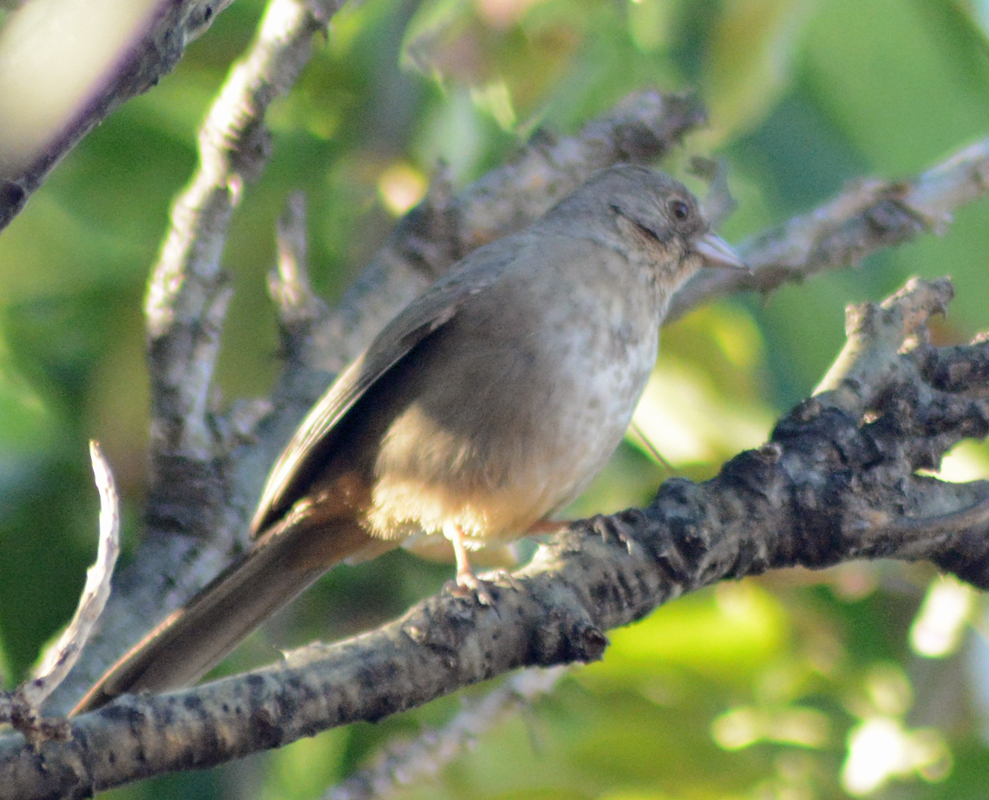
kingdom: Animalia
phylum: Chordata
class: Aves
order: Passeriformes
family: Passerellidae
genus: Melozone
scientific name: Melozone fusca
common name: Canyon towhee
